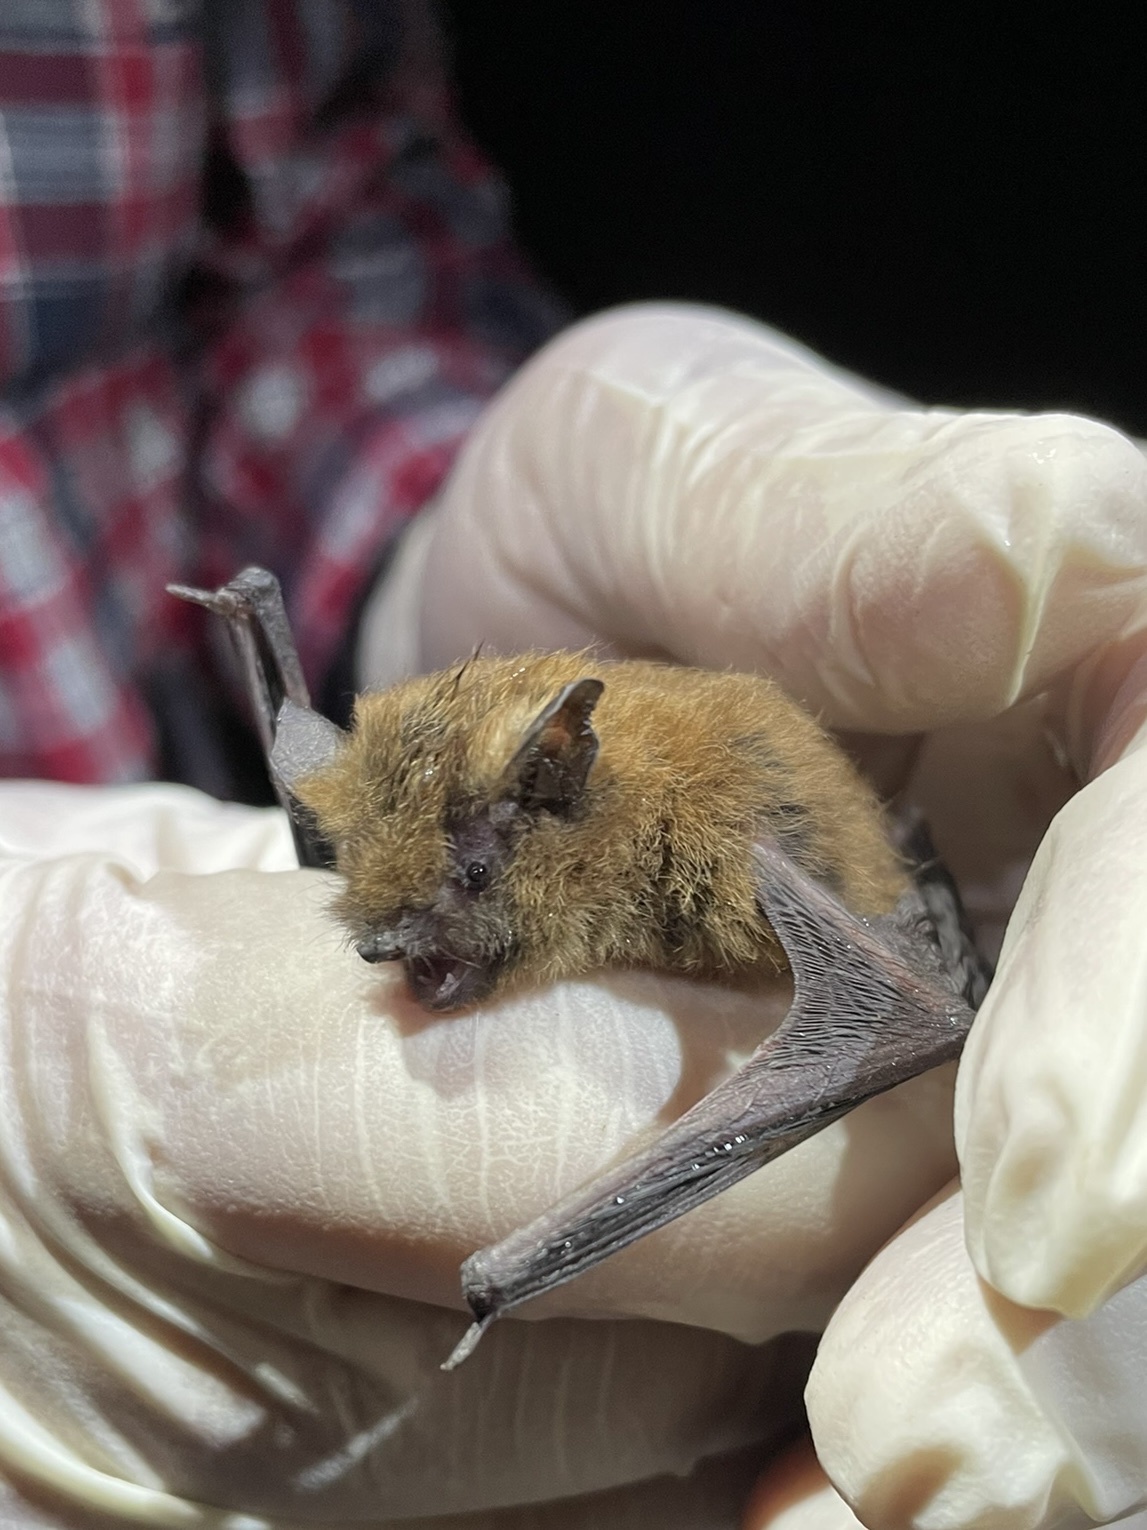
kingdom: Animalia
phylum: Chordata
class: Mammalia
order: Chiroptera
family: Vespertilionidae
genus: Myotis
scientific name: Myotis californicus
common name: Californian myotis
